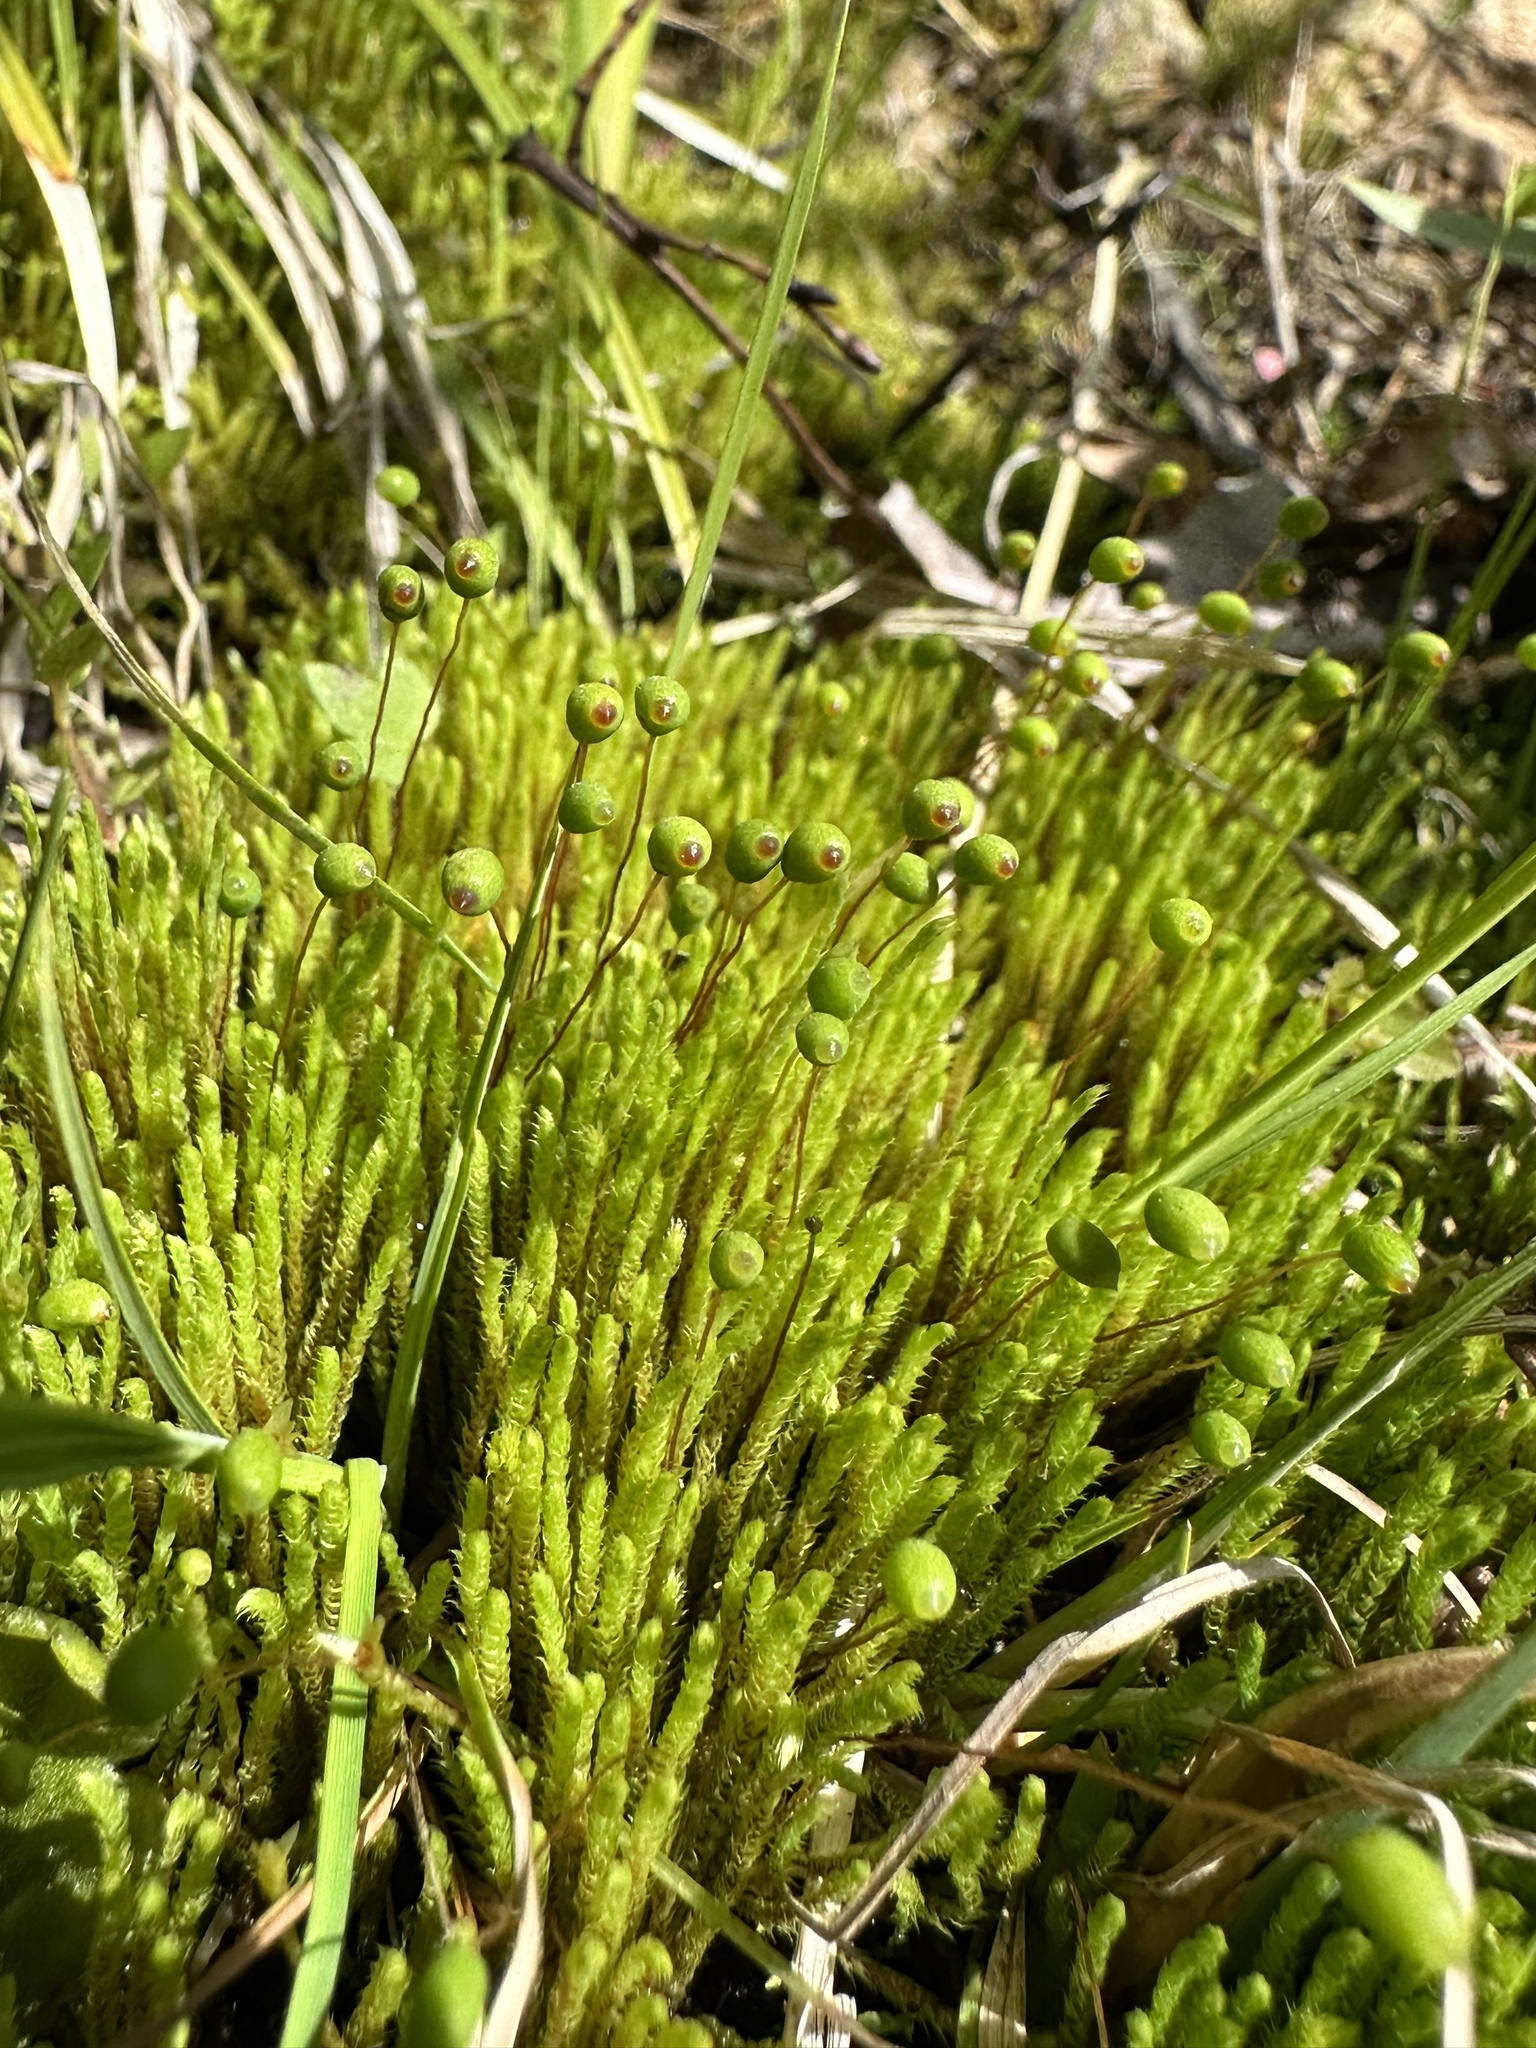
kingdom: Plantae
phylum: Bryophyta
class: Bryopsida
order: Bartramiales
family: Bartramiaceae
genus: Philonotis
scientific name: Philonotis fontana
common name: Fountain apple-moss
